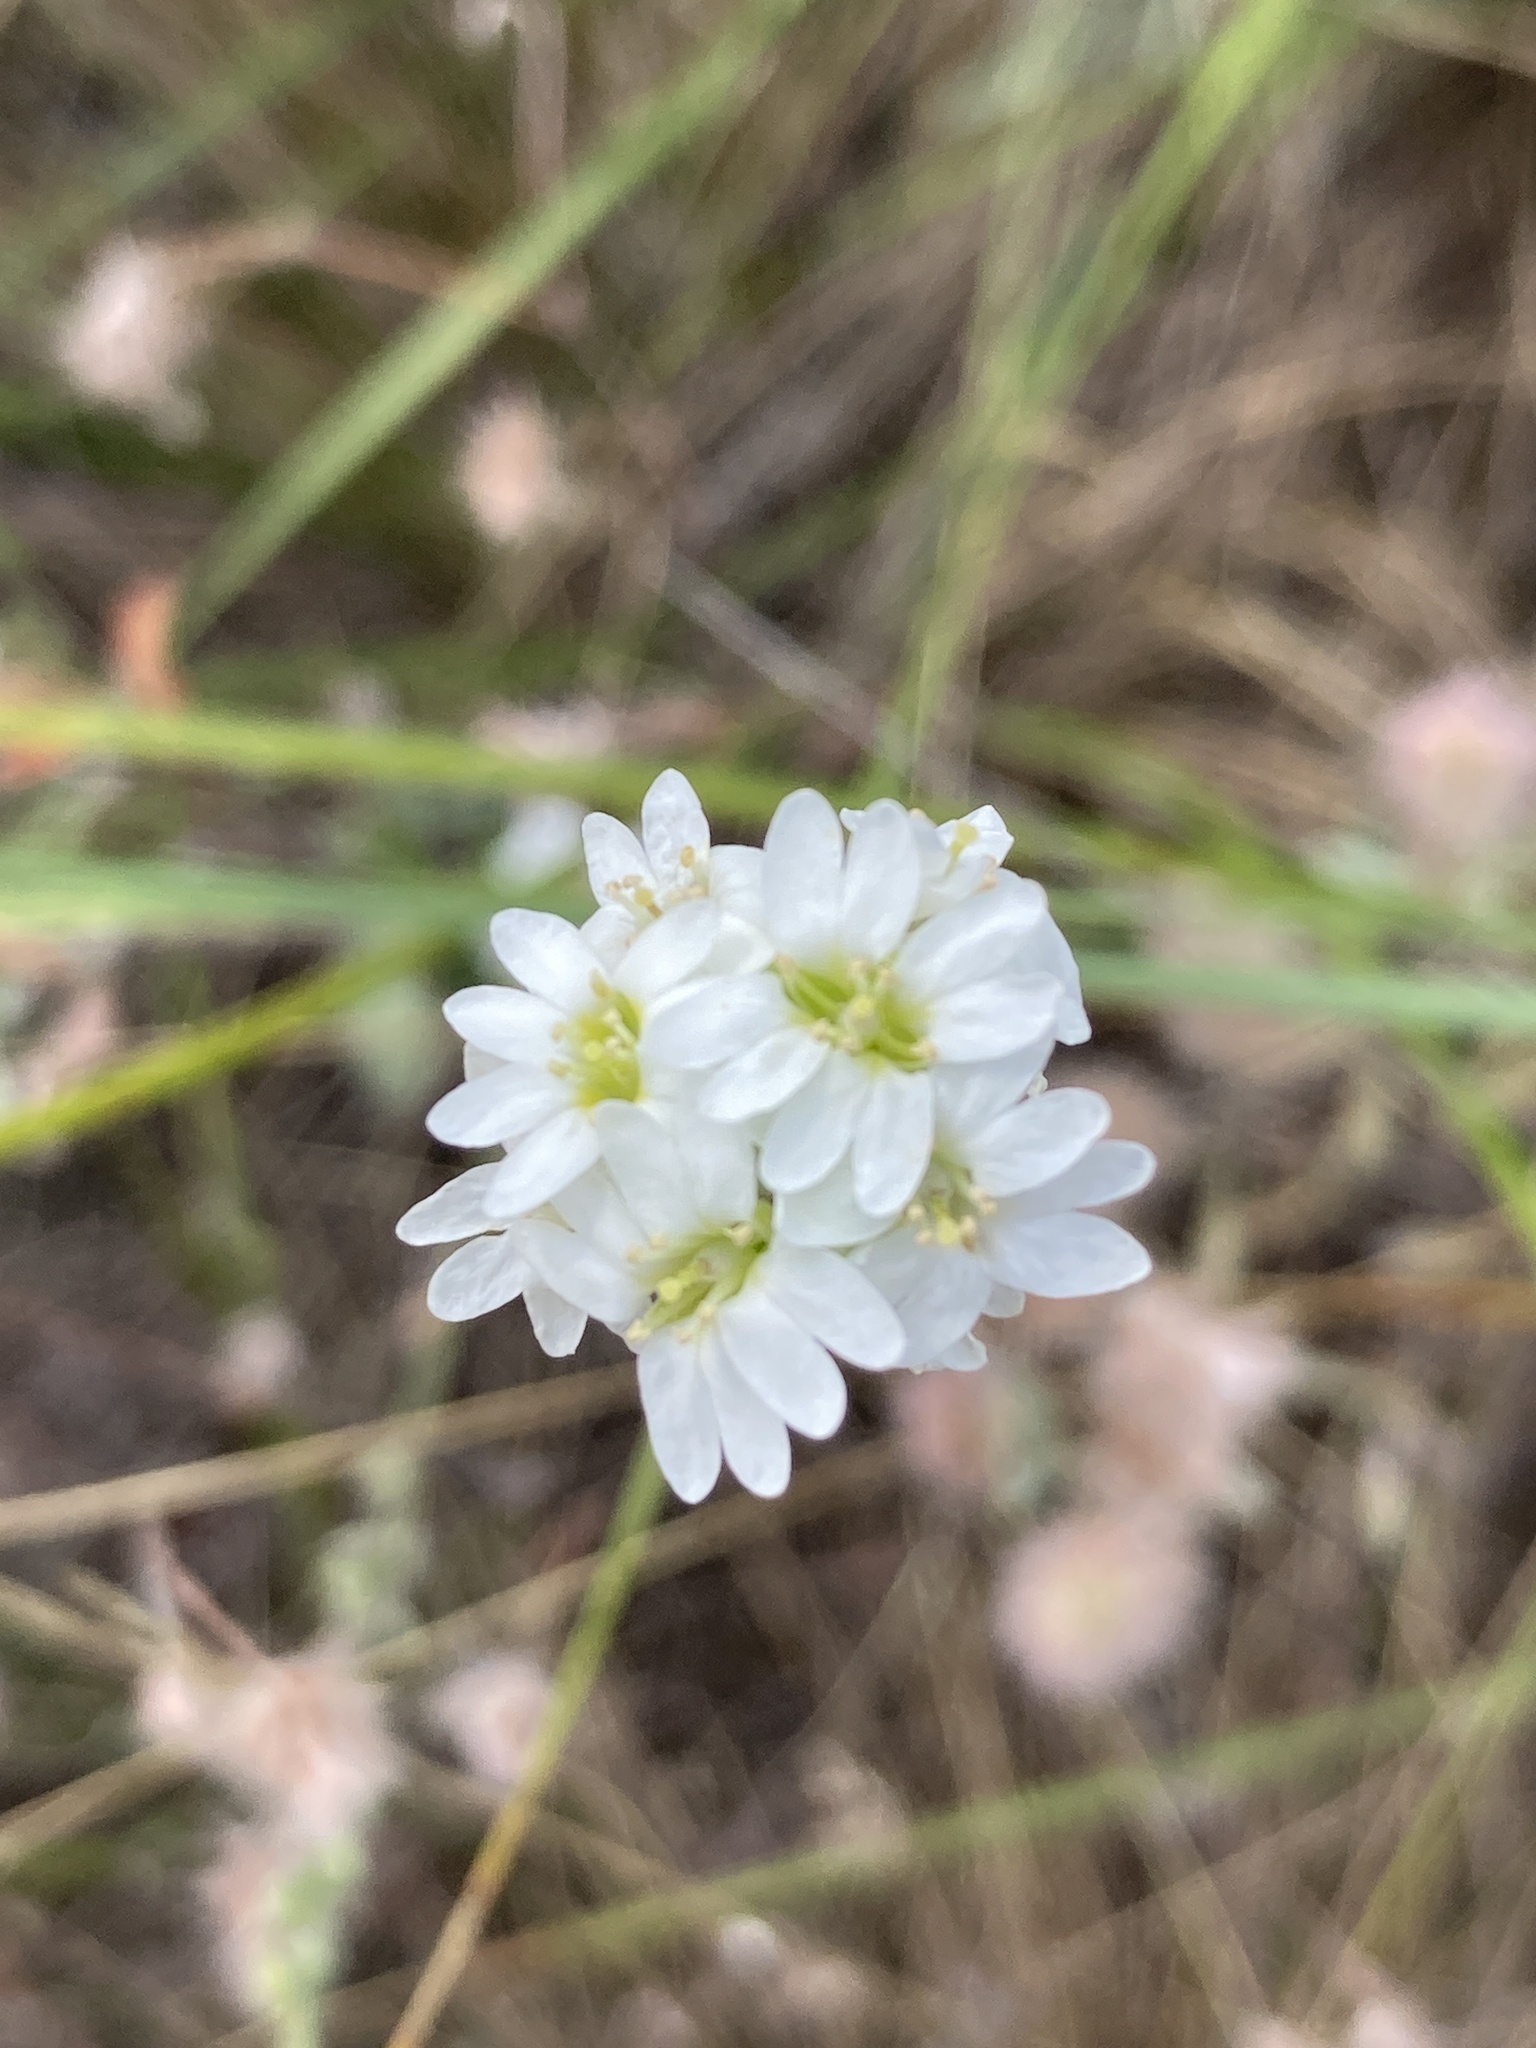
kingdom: Plantae
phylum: Tracheophyta
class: Magnoliopsida
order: Brassicales
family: Brassicaceae
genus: Berteroa
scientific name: Berteroa incana
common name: Hoary alison
